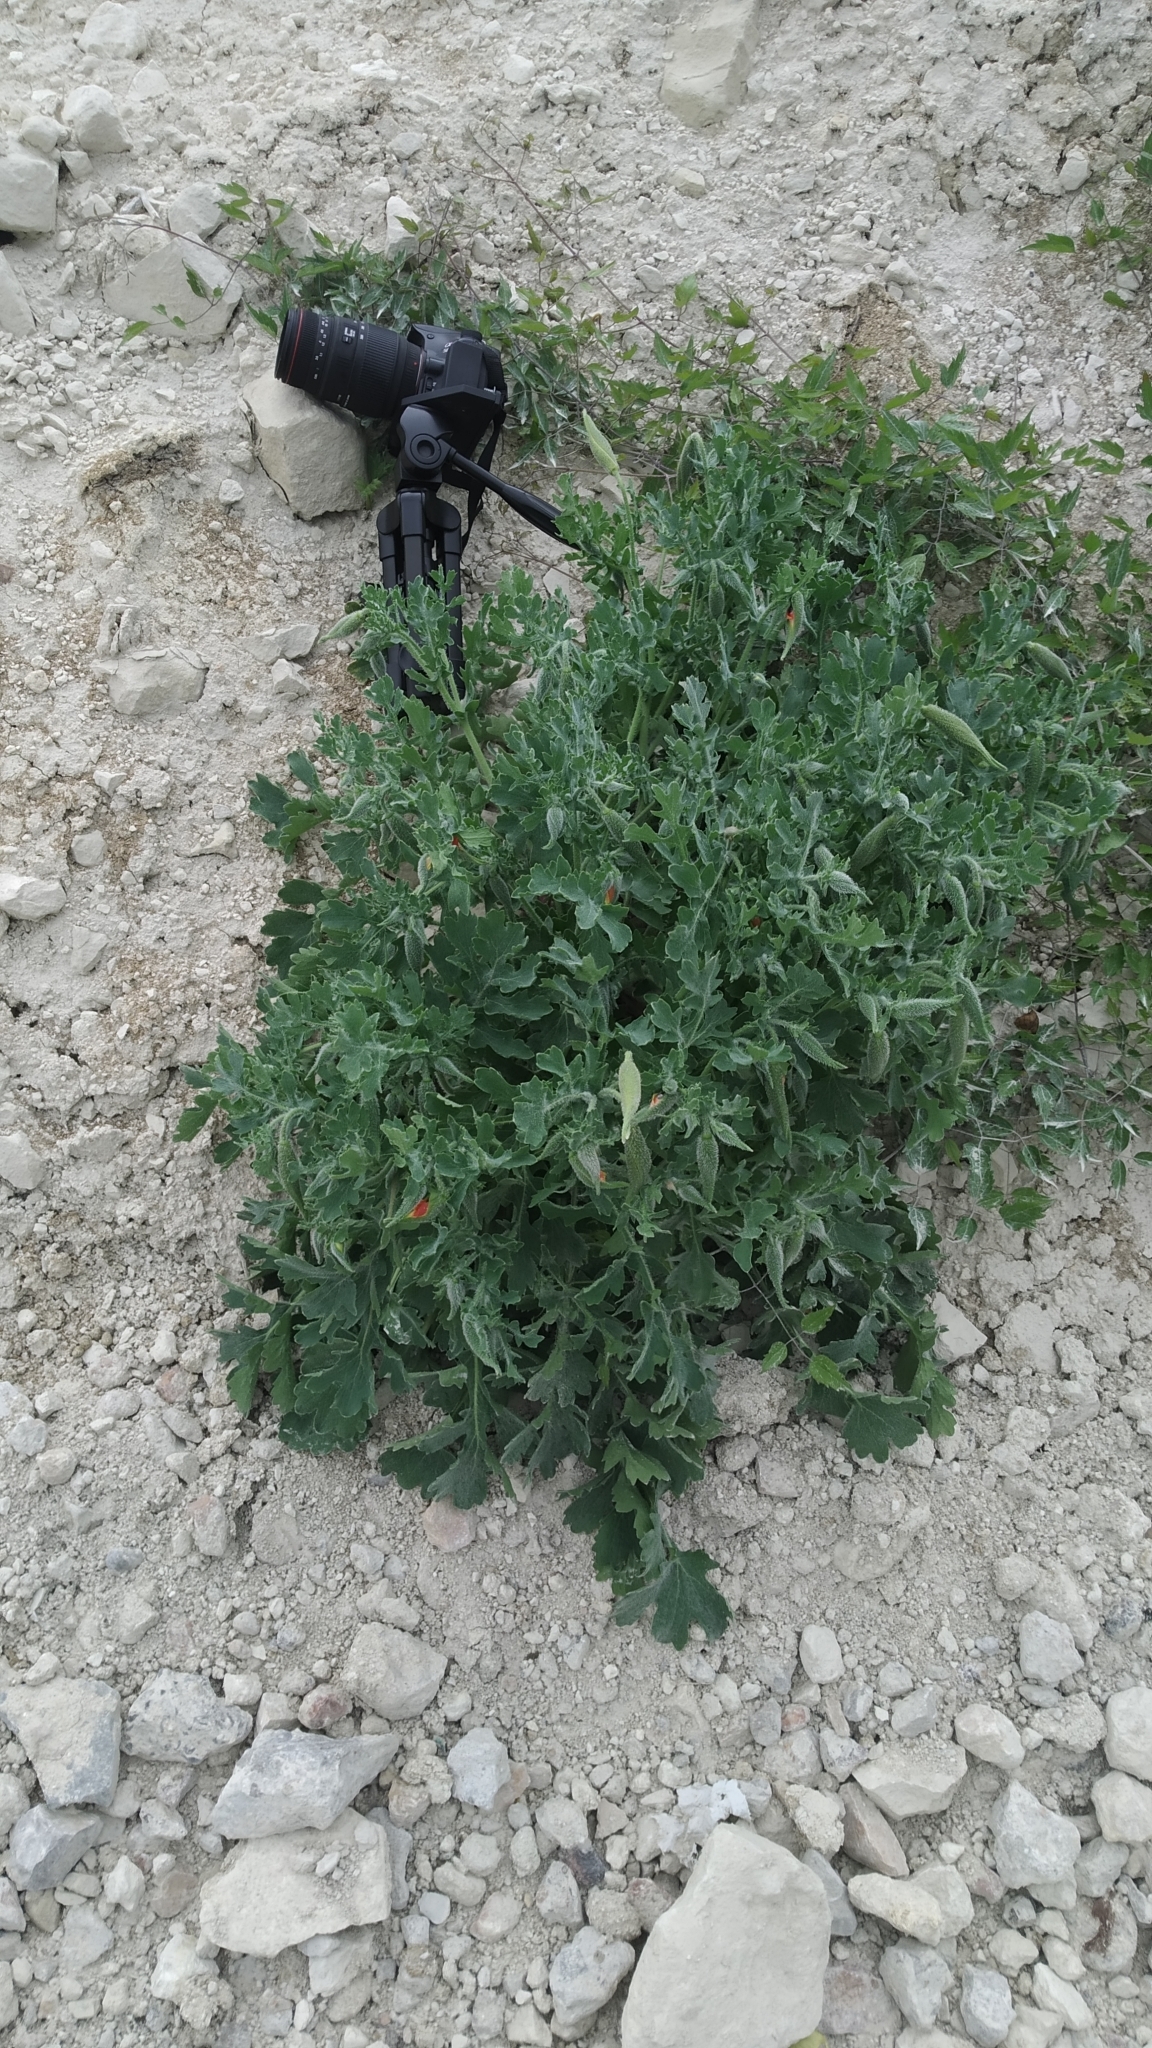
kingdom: Plantae
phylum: Tracheophyta
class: Magnoliopsida
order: Ranunculales
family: Papaveraceae
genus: Glaucium
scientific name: Glaucium corniculatum
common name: Red horned-poppy
